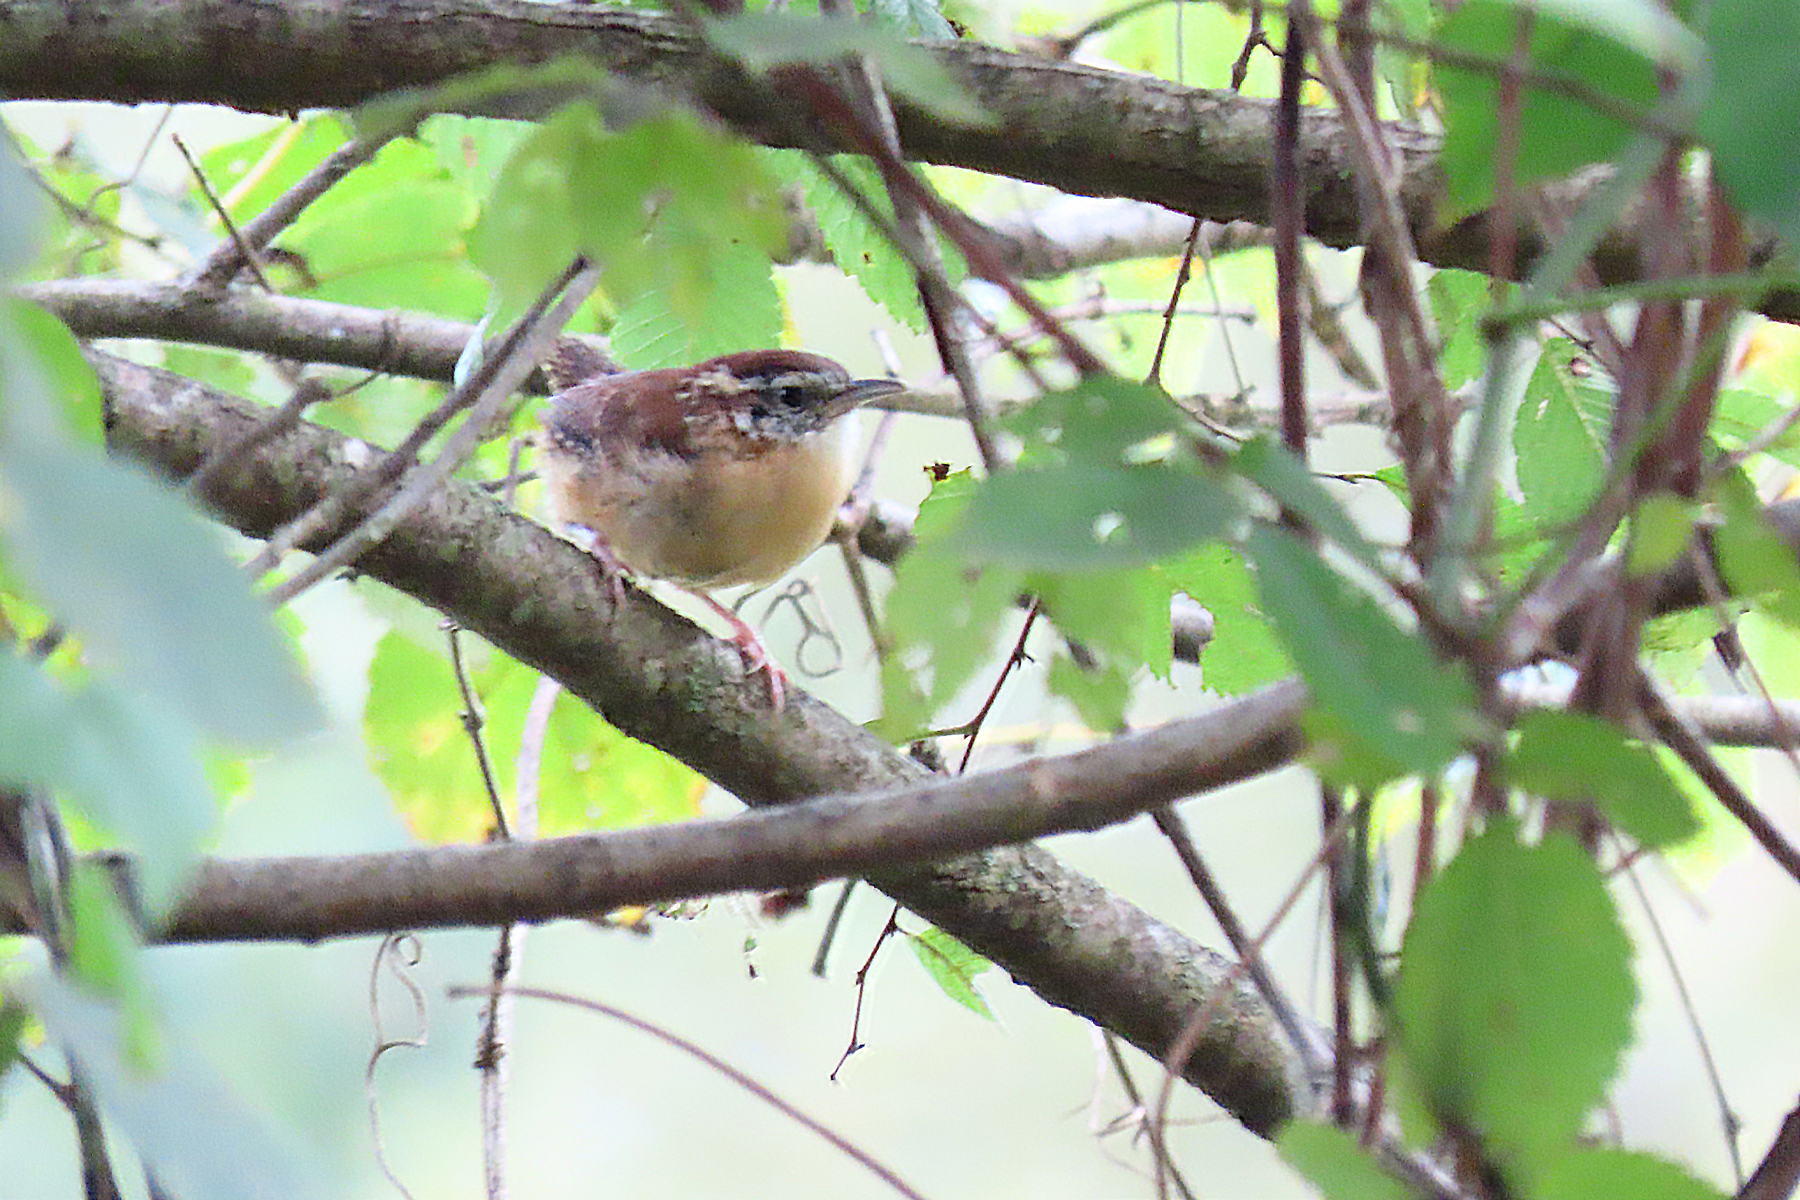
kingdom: Animalia
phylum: Chordata
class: Aves
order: Passeriformes
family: Troglodytidae
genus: Thryothorus
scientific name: Thryothorus ludovicianus
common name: Carolina wren
